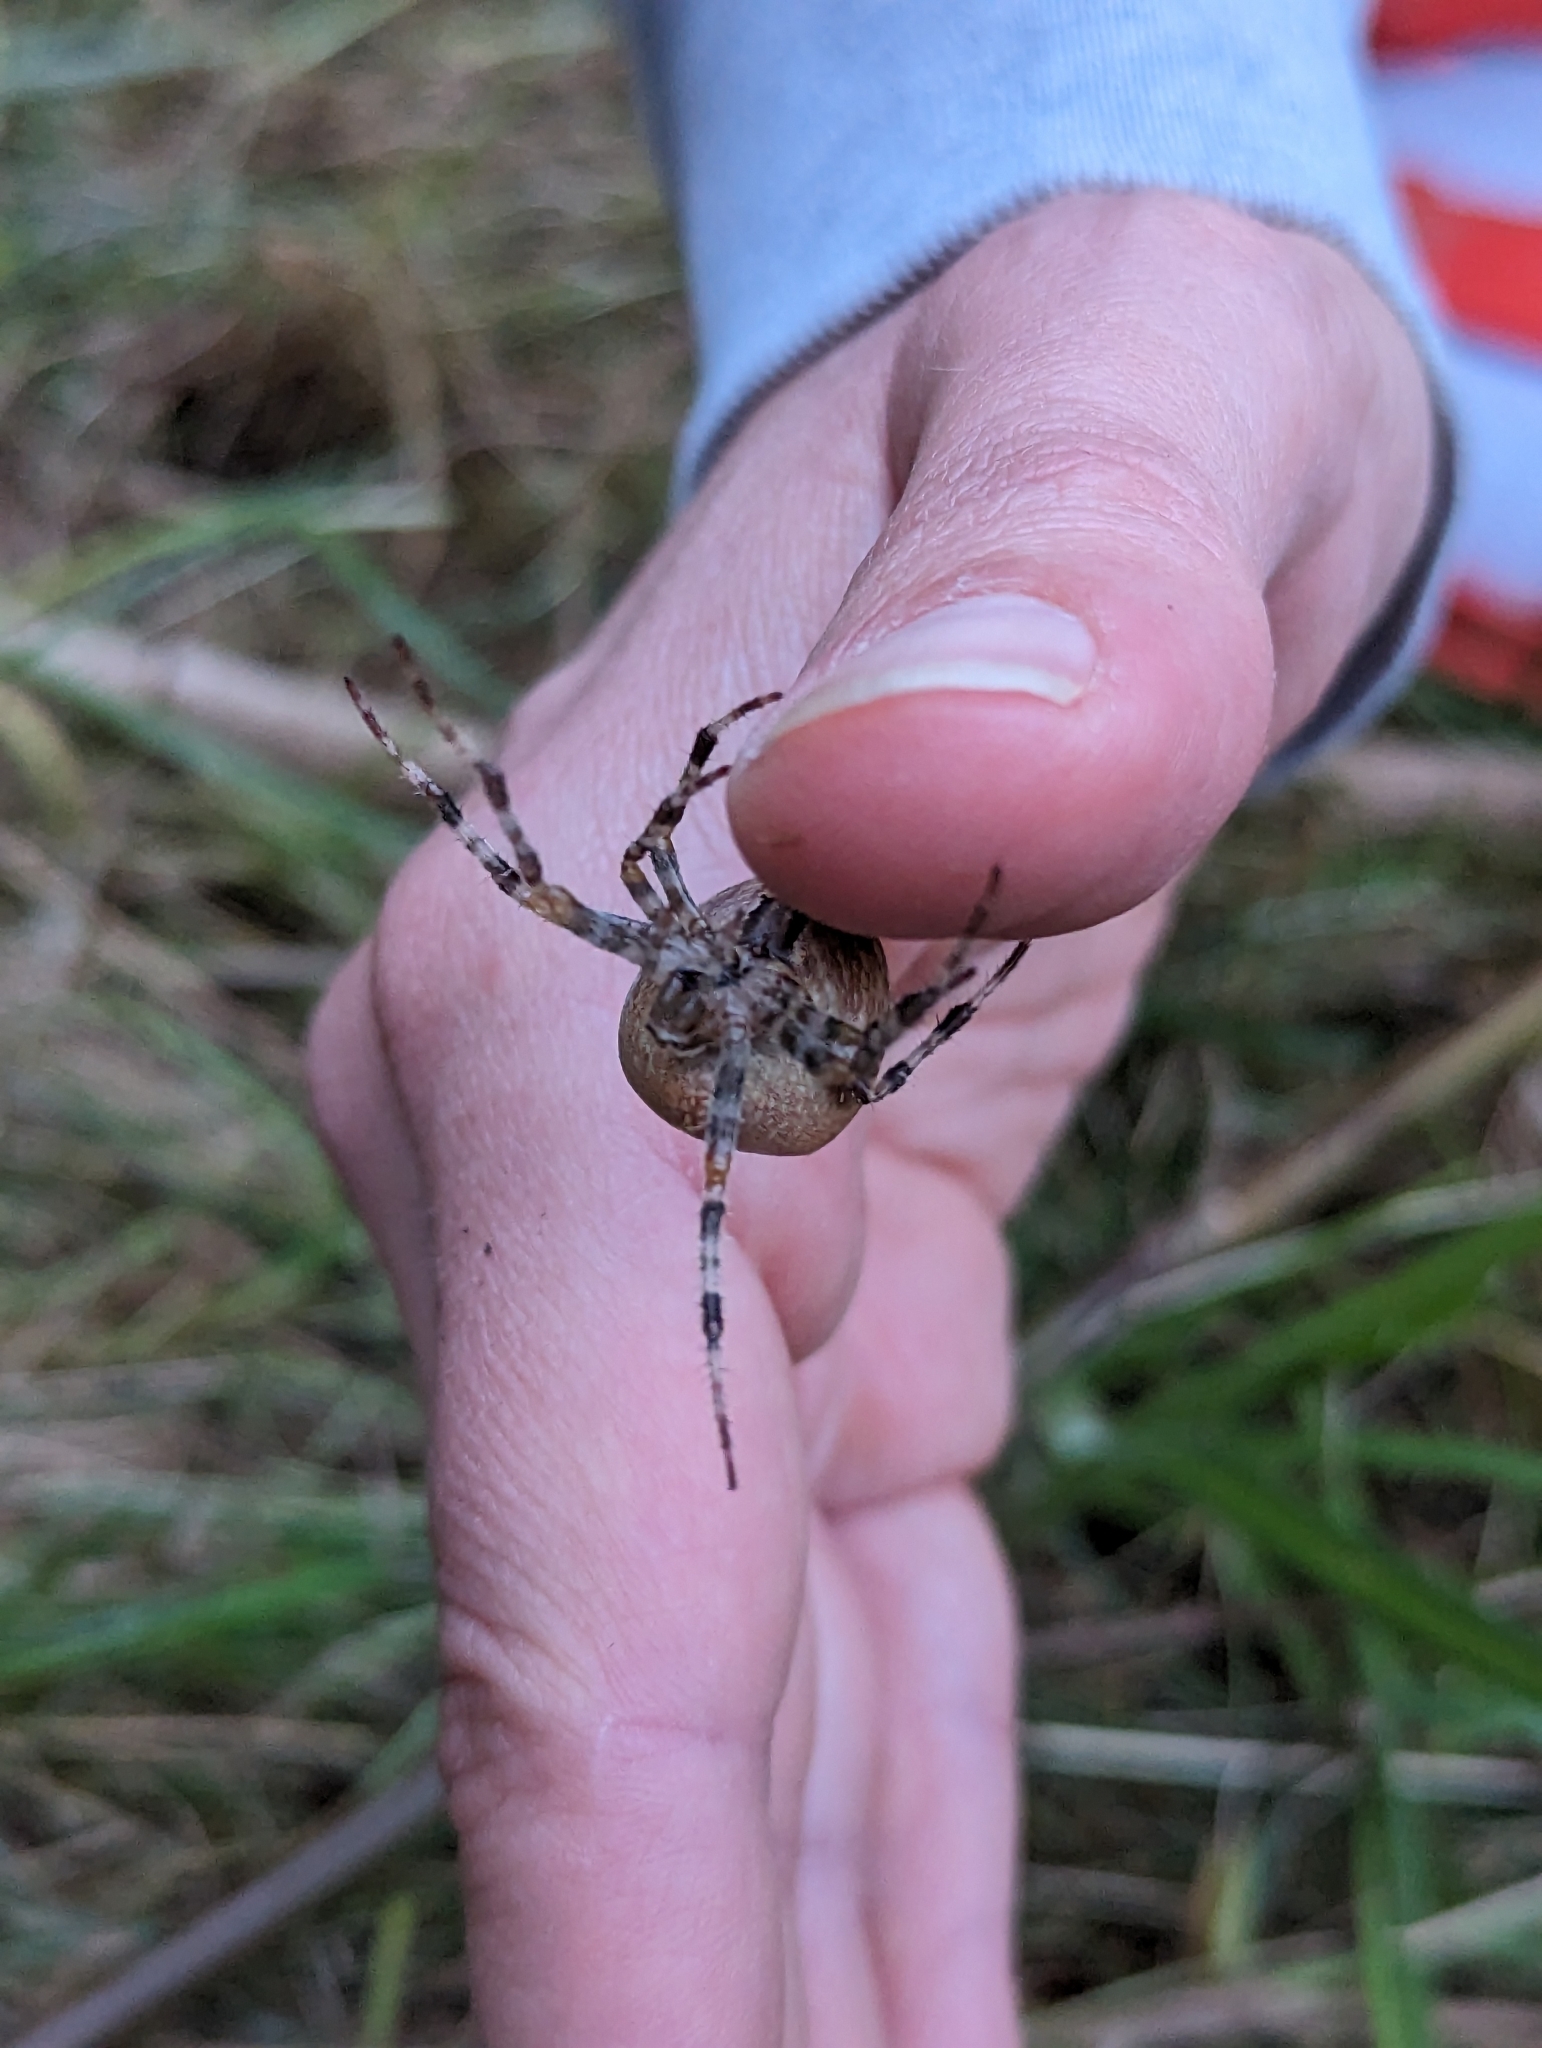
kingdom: Animalia
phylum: Arthropoda
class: Arachnida
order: Araneae
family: Araneidae
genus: Araneus
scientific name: Araneus diadematus
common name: Cross orbweaver
